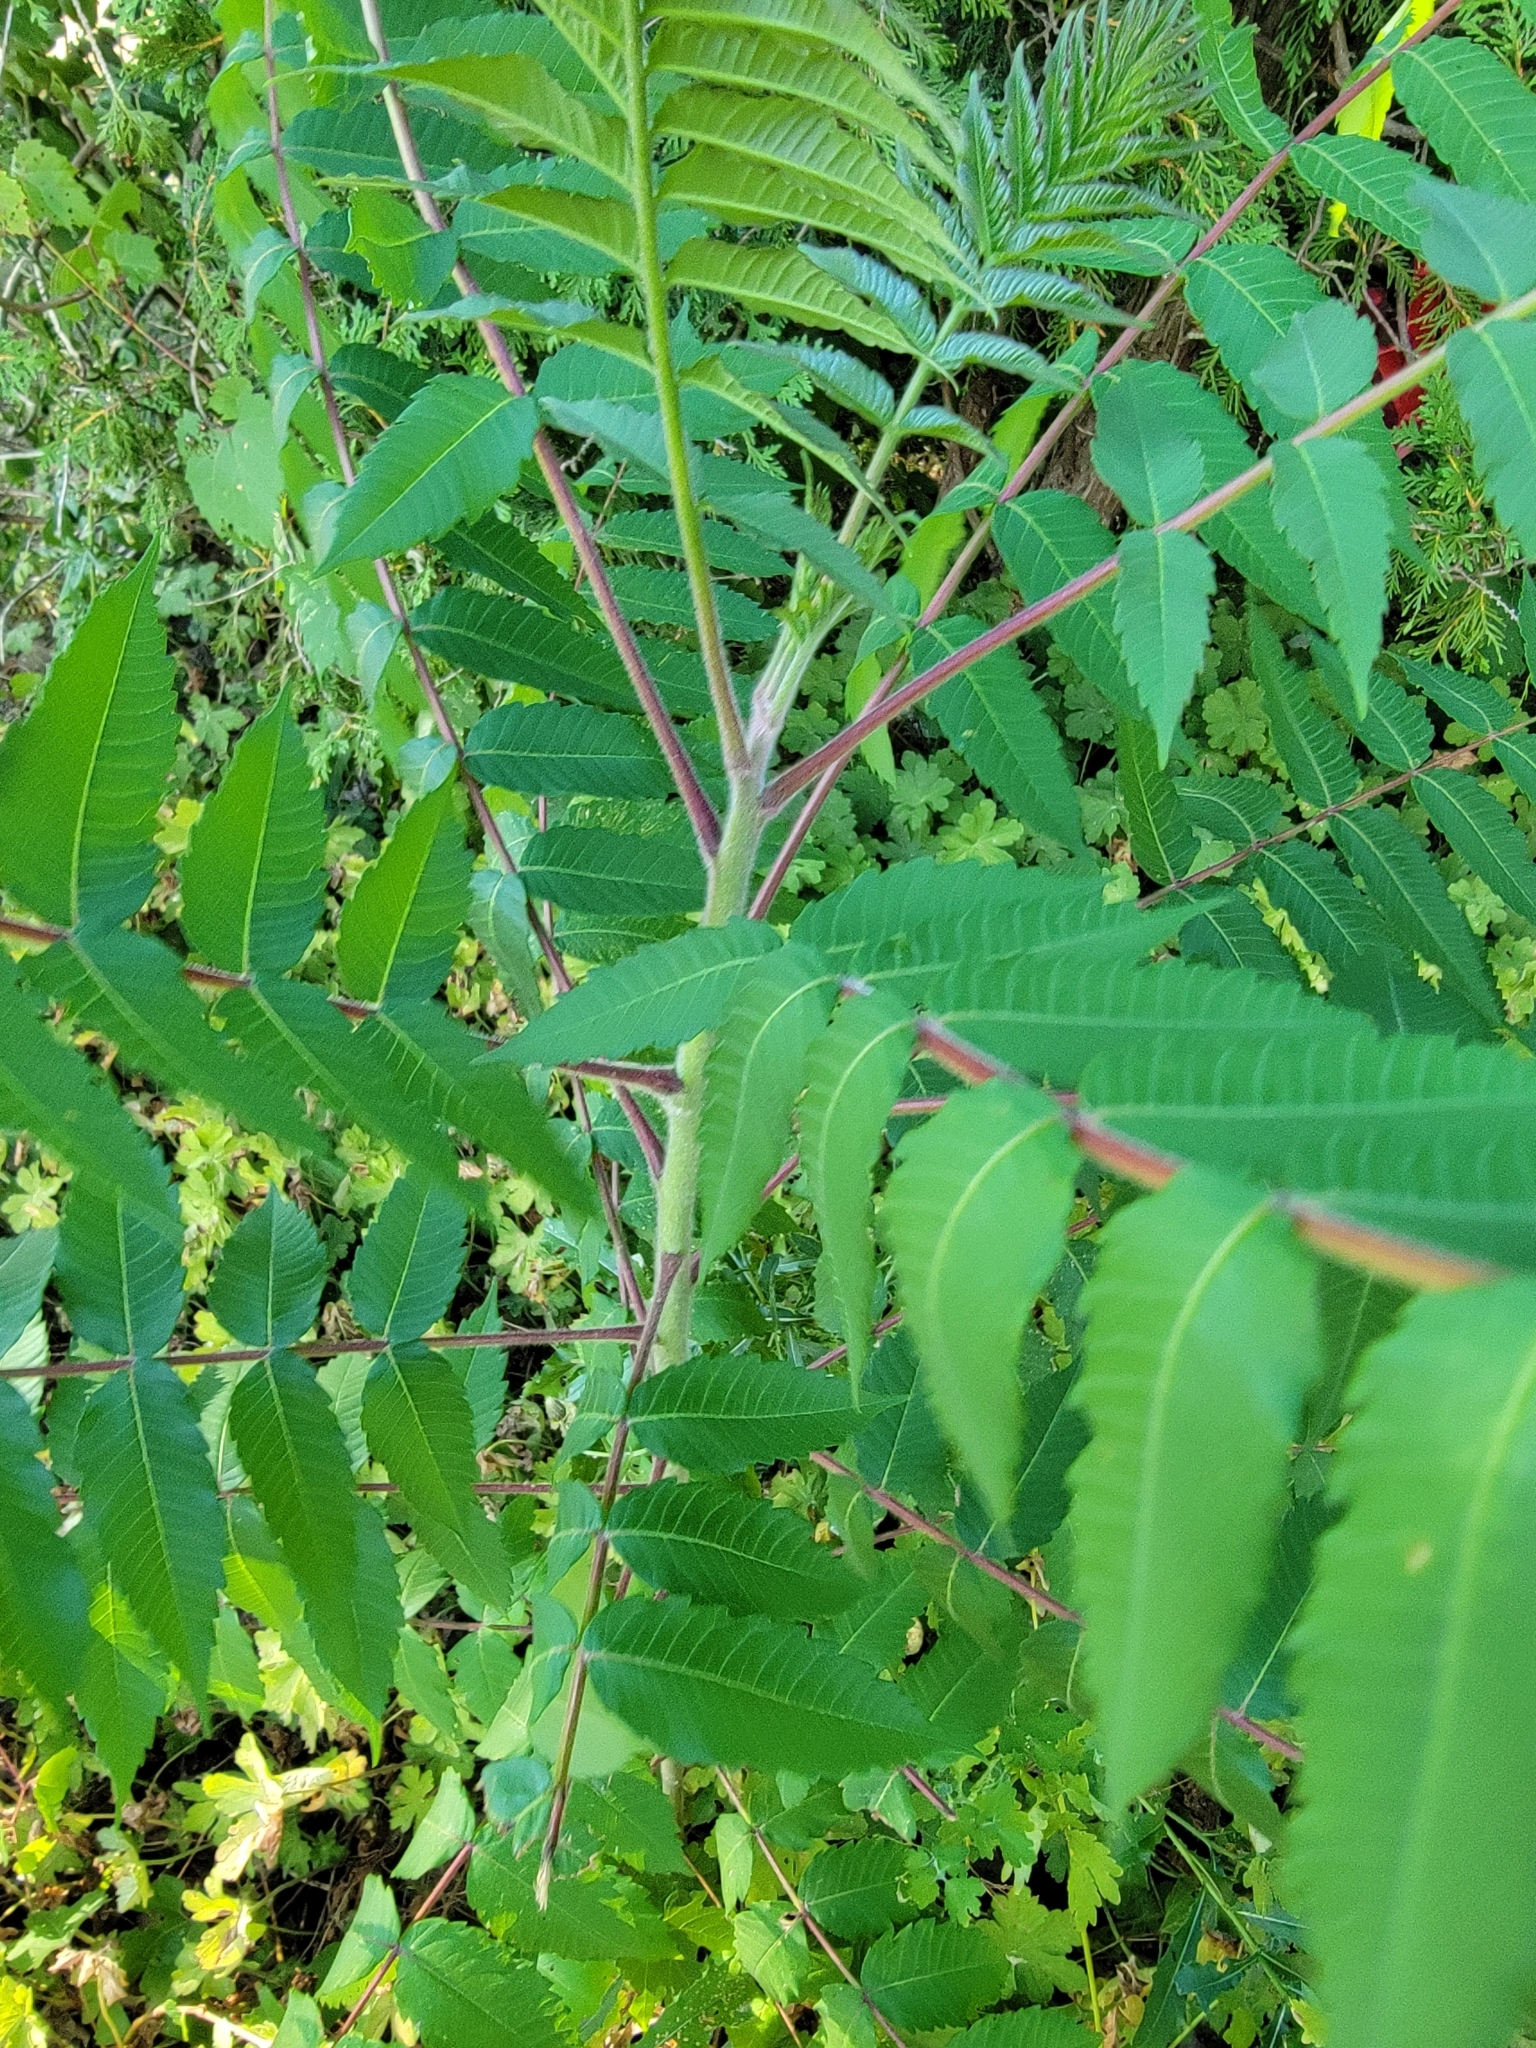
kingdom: Plantae
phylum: Tracheophyta
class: Magnoliopsida
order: Sapindales
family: Anacardiaceae
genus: Rhus
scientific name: Rhus typhina
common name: Staghorn sumac
